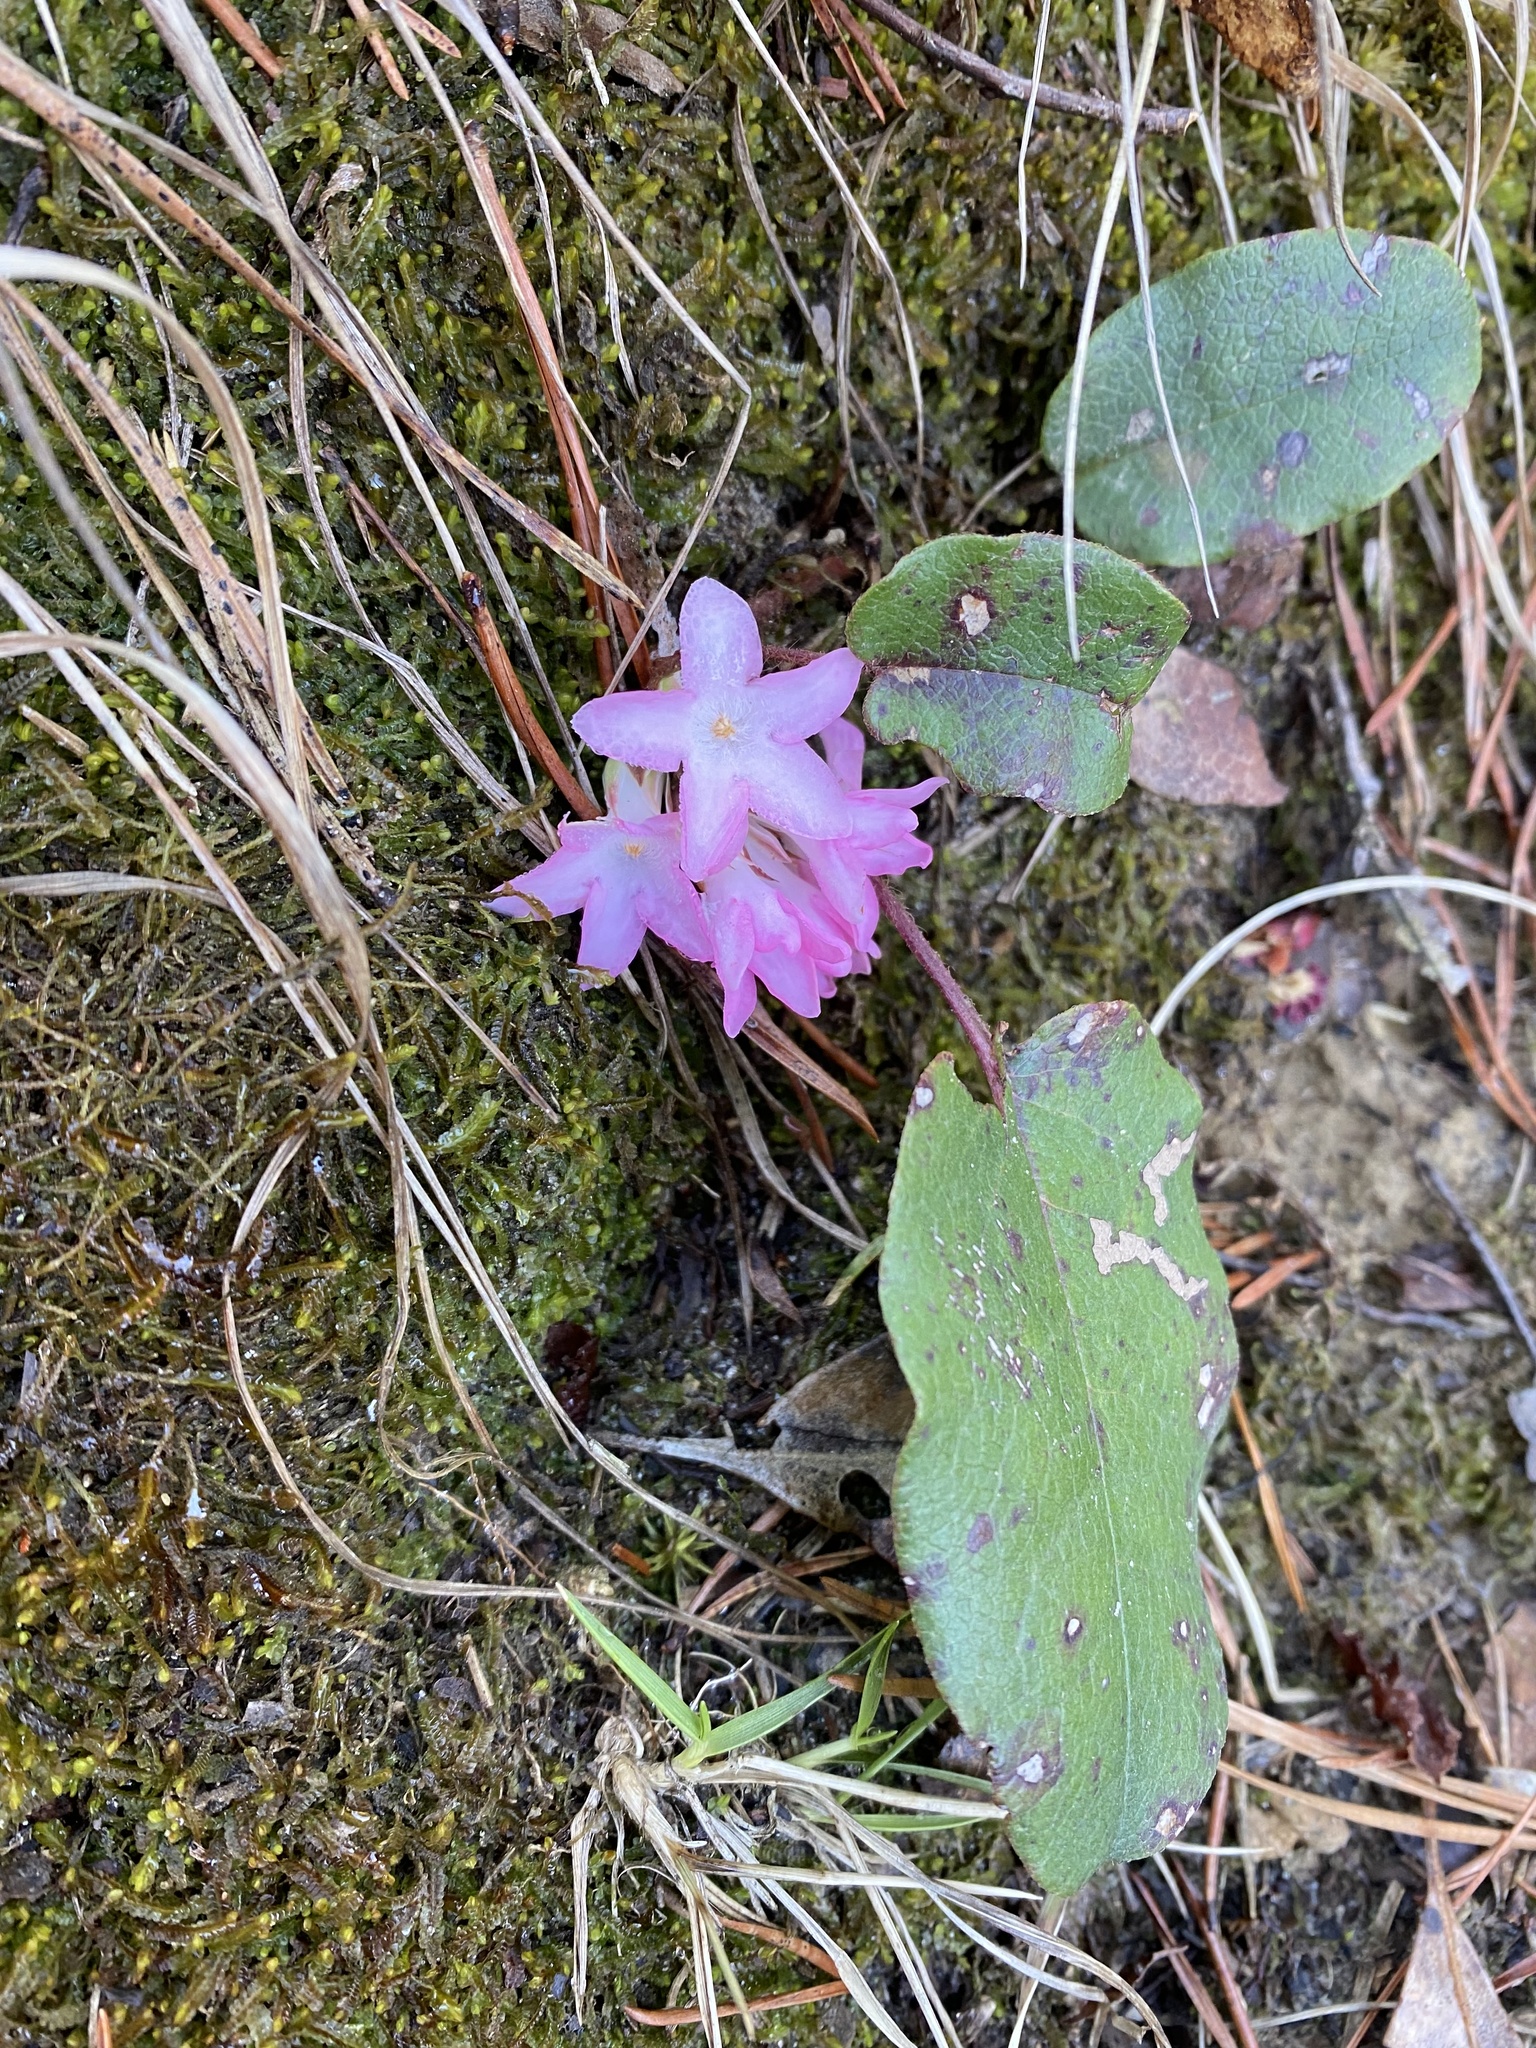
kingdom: Plantae
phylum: Tracheophyta
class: Magnoliopsida
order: Ericales
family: Ericaceae
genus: Epigaea
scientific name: Epigaea repens
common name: Gravelroot
